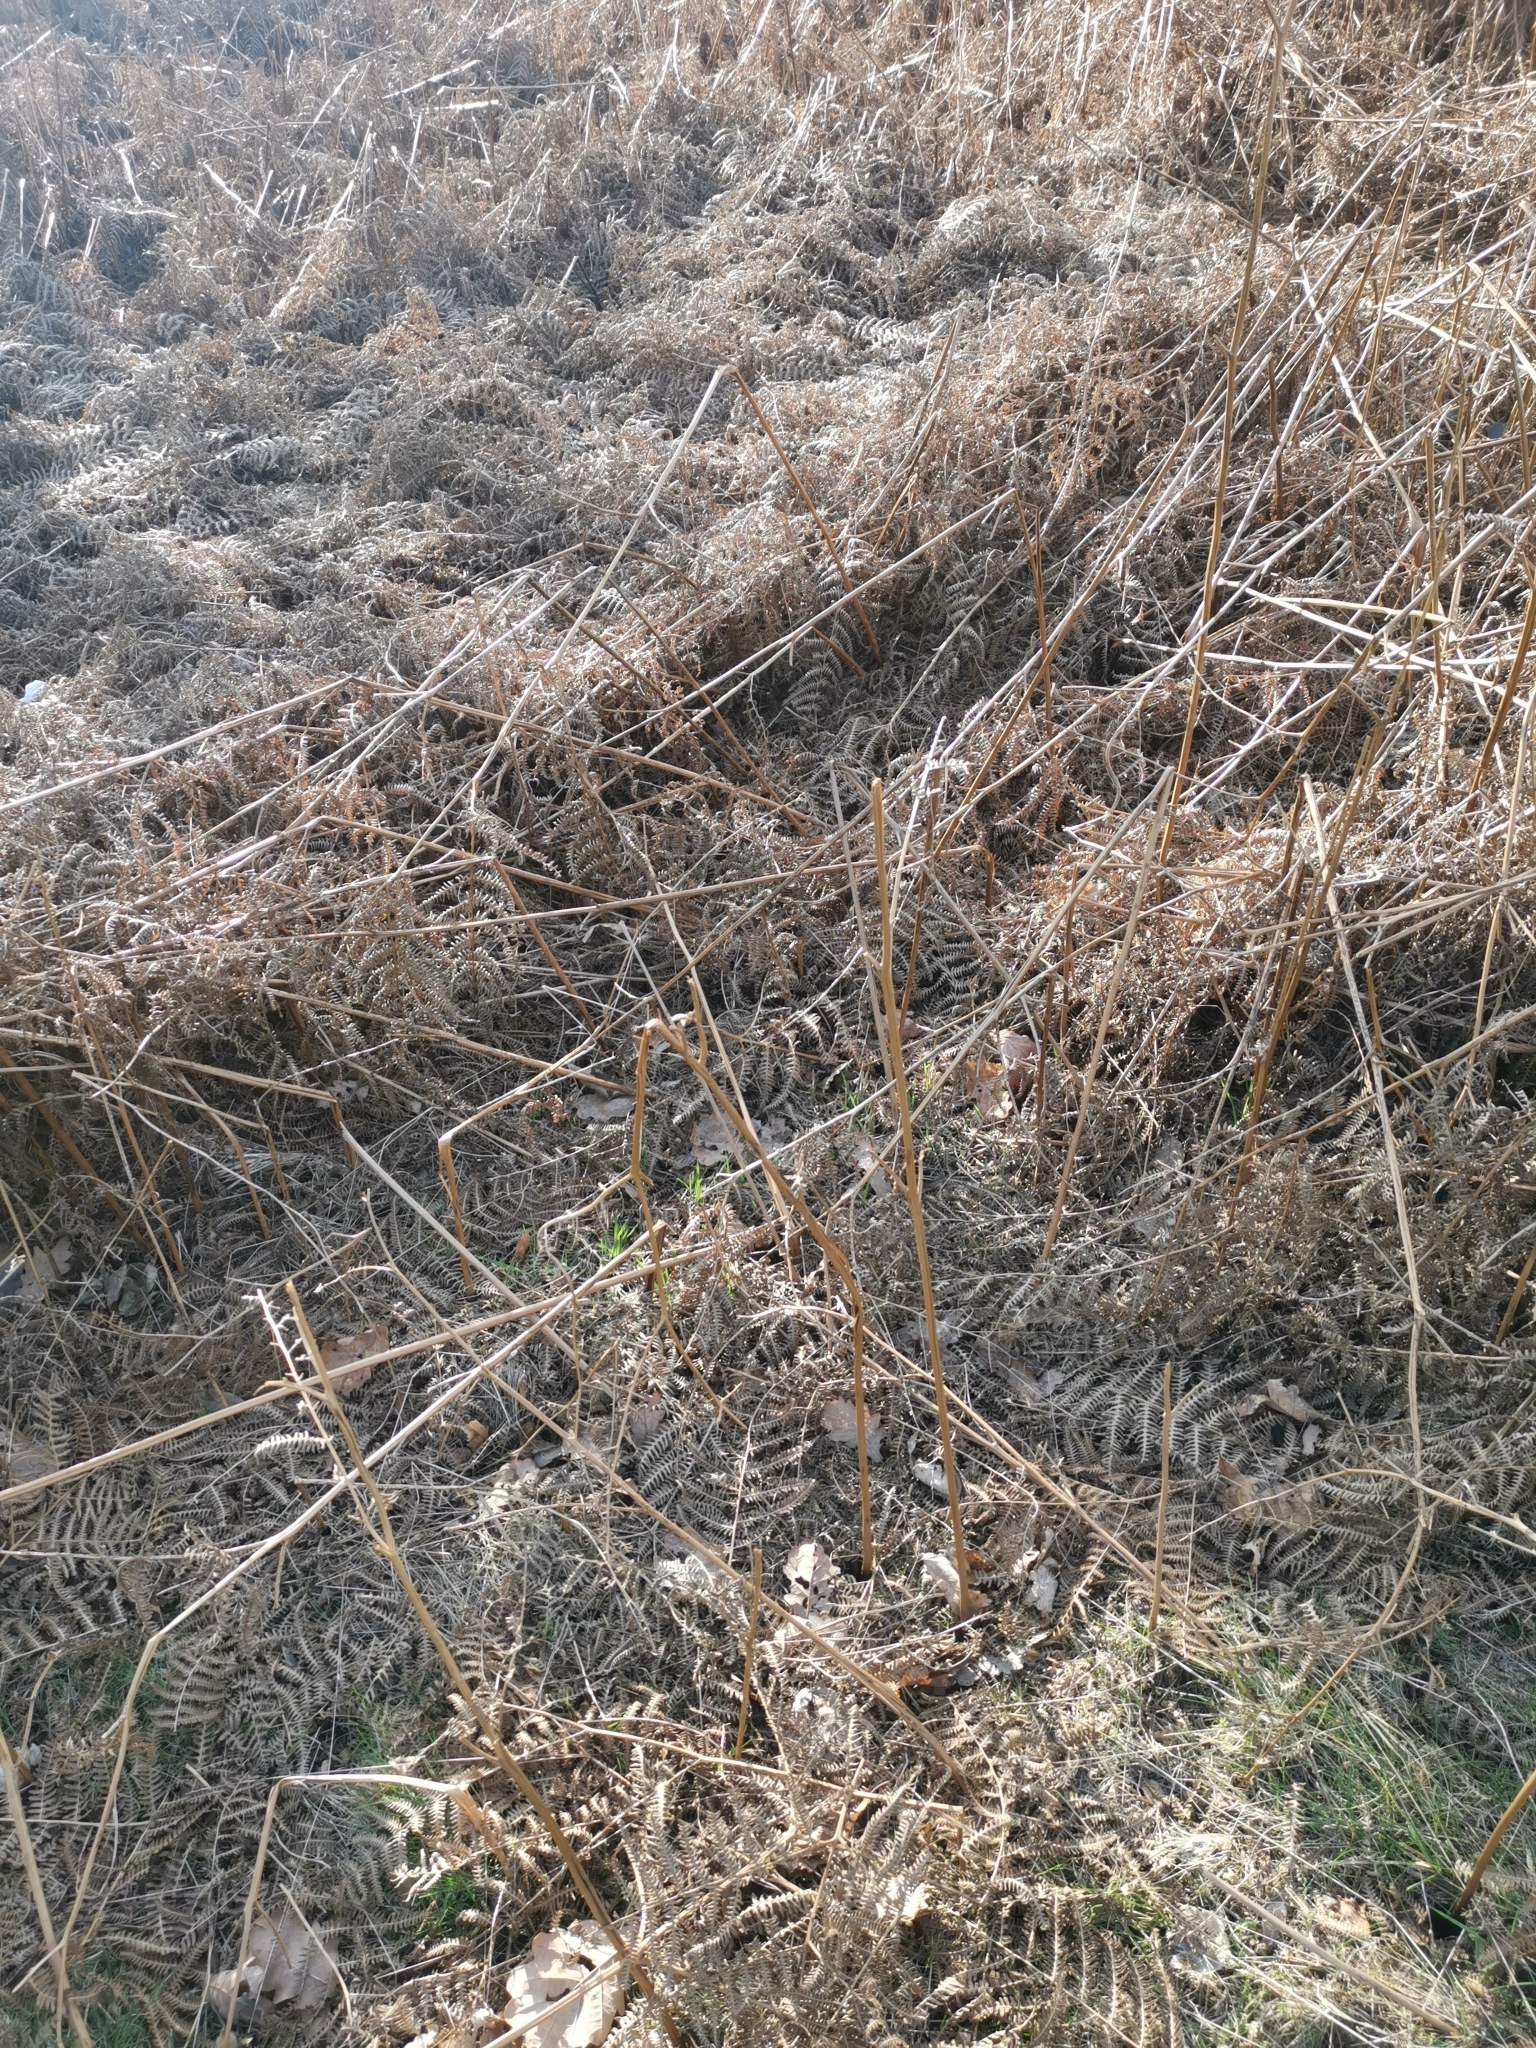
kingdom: Plantae
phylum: Tracheophyta
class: Polypodiopsida
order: Polypodiales
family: Dennstaedtiaceae
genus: Pteridium
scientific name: Pteridium aquilinum
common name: Bracken
